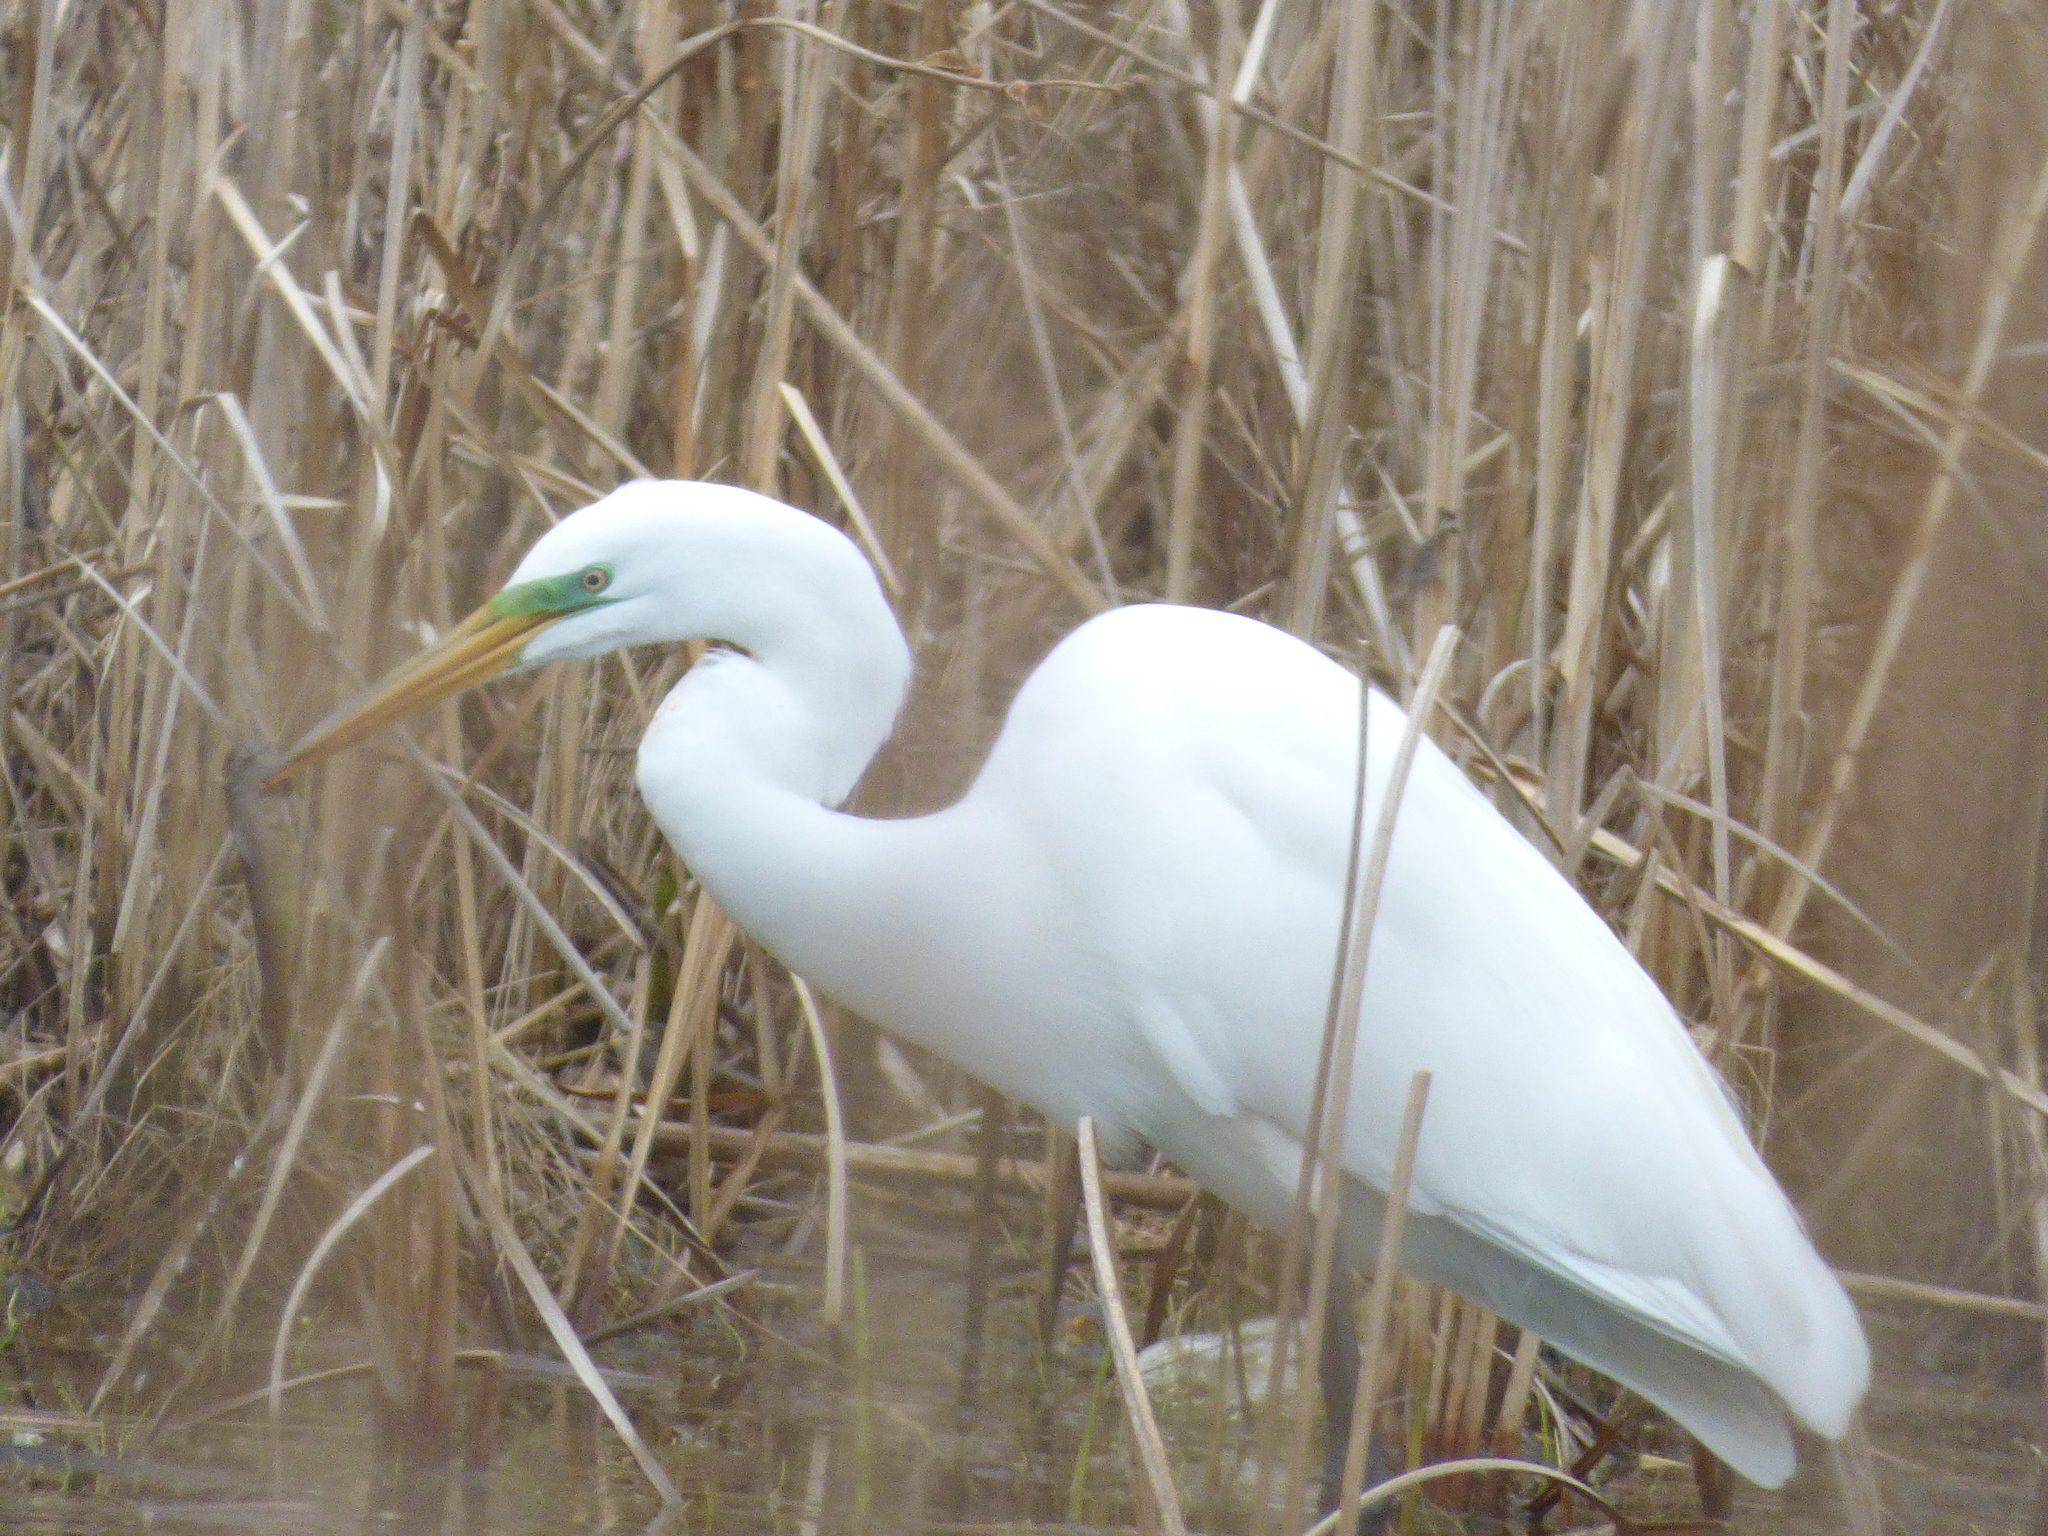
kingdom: Animalia
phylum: Chordata
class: Aves
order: Pelecaniformes
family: Ardeidae
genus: Ardea
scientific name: Ardea alba
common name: Great egret
